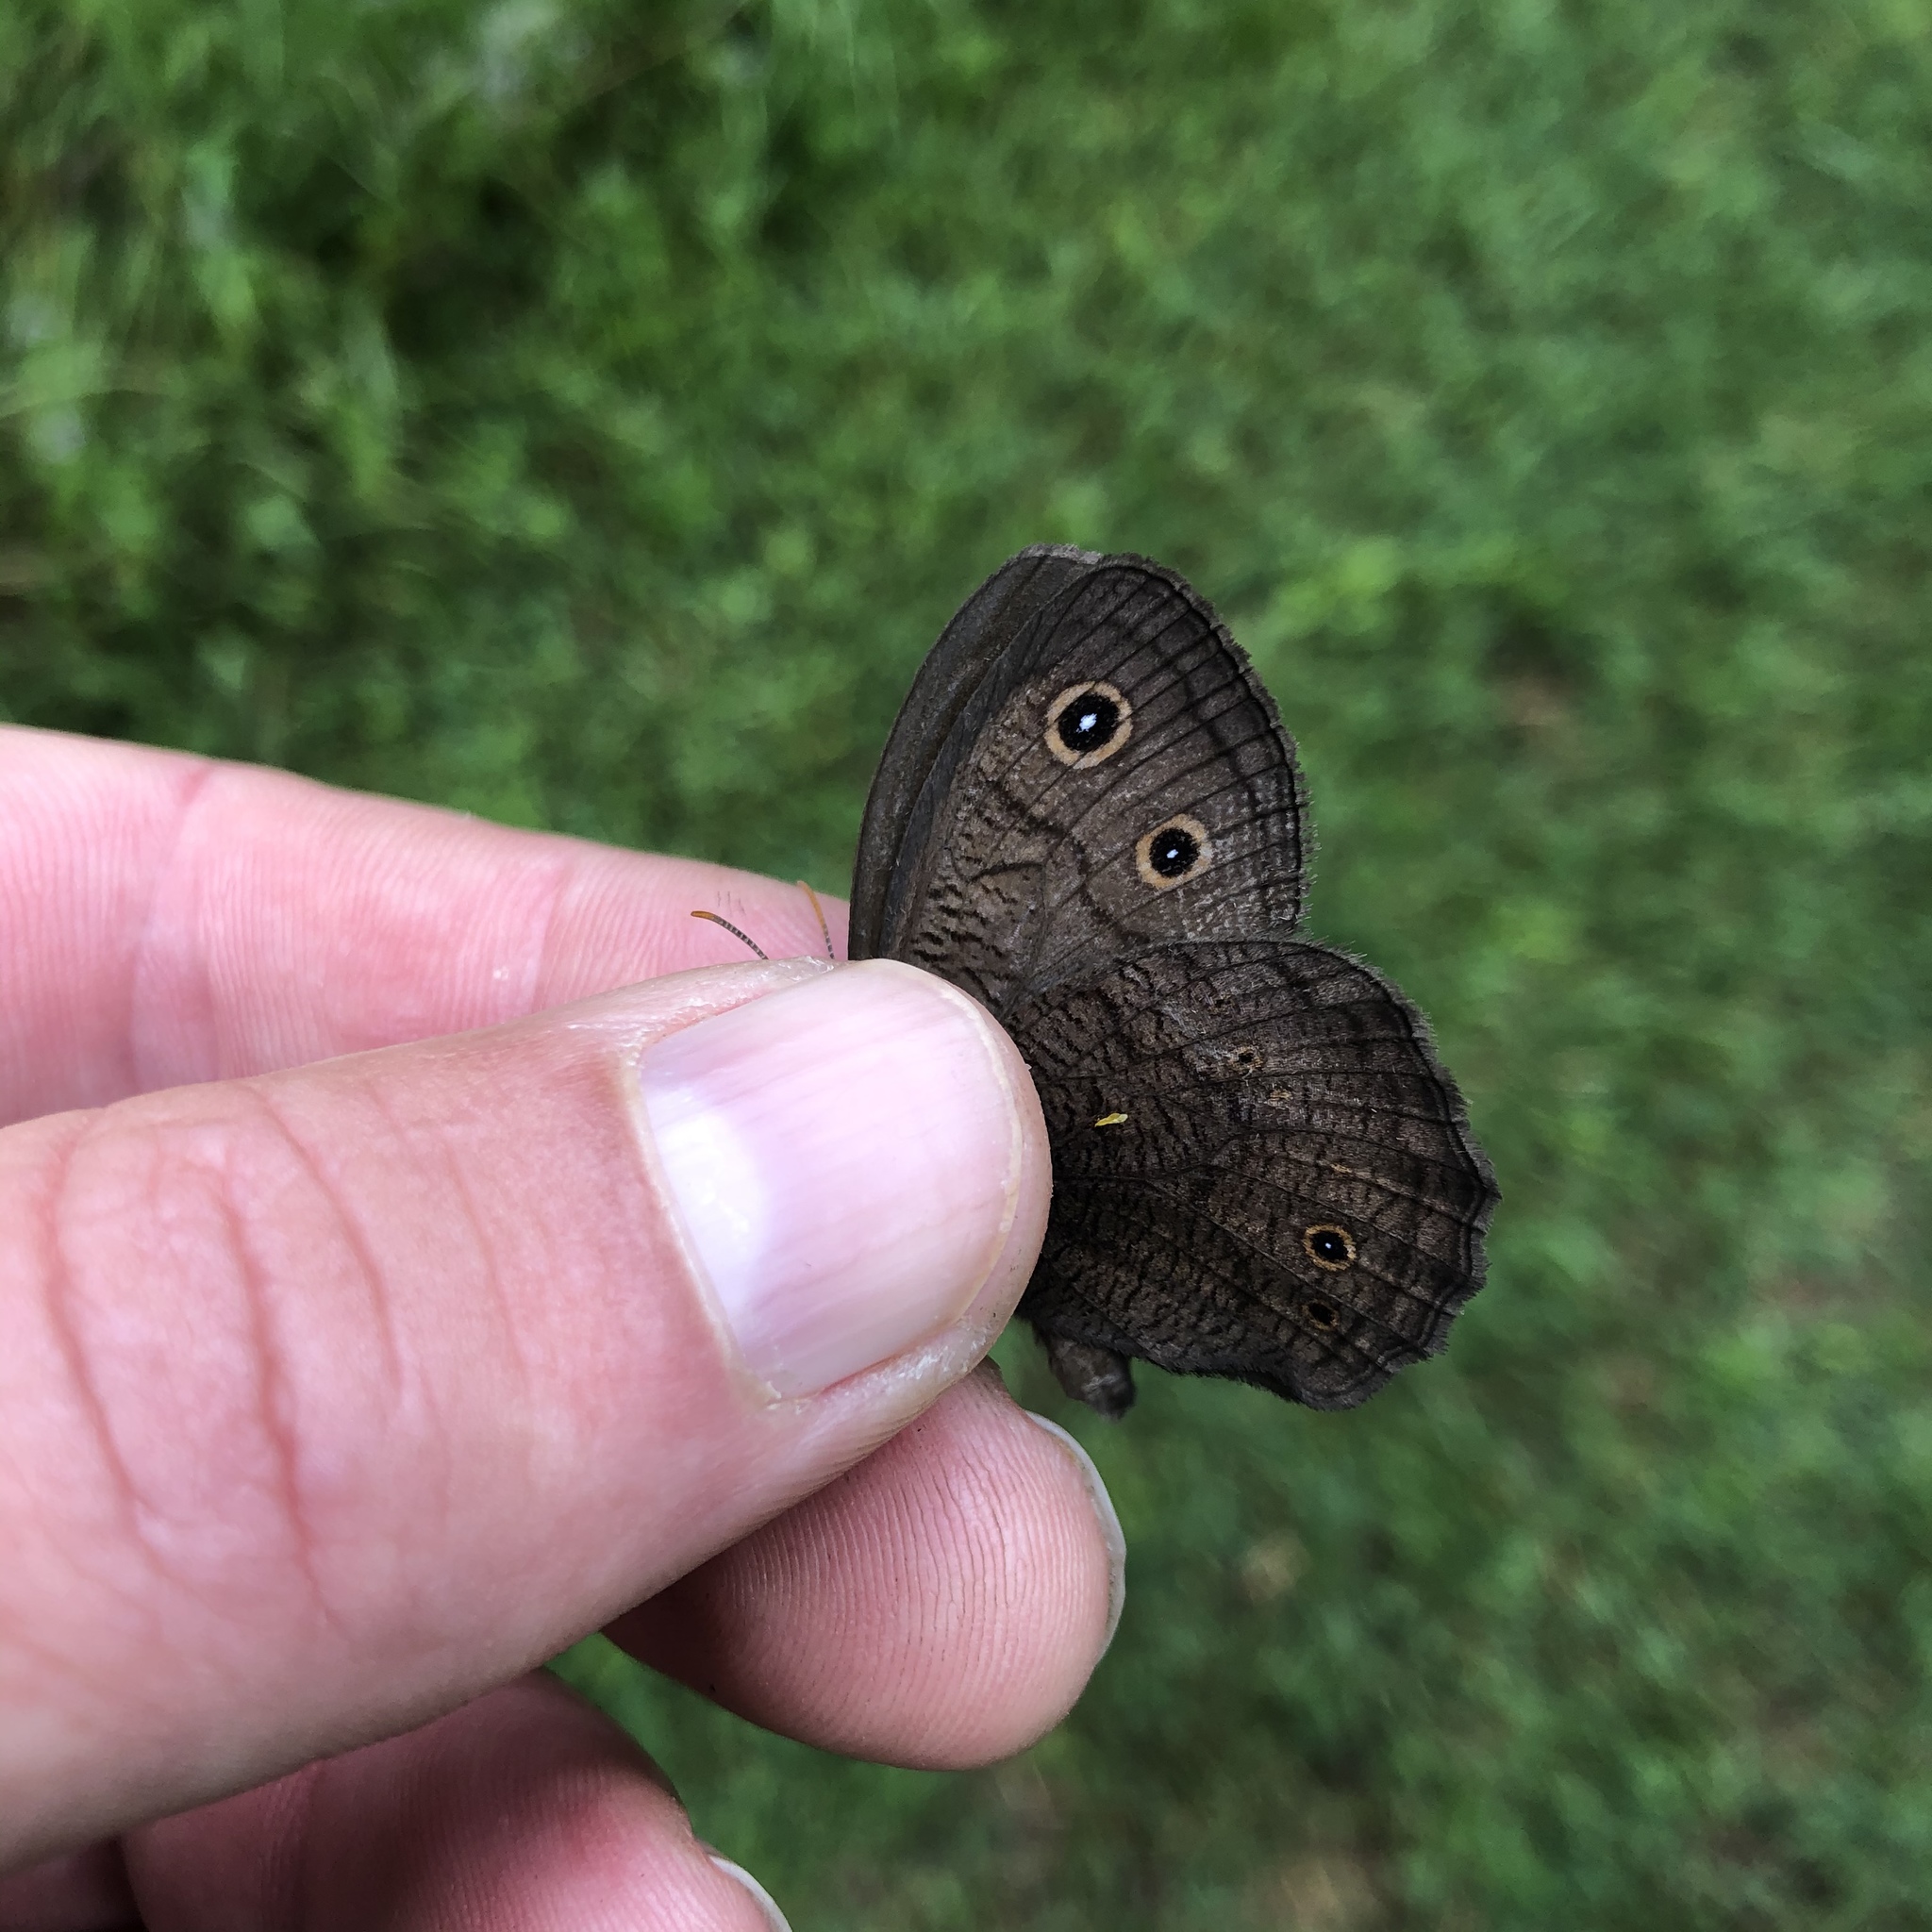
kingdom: Animalia
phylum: Arthropoda
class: Insecta
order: Lepidoptera
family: Nymphalidae
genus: Cercyonis
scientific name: Cercyonis pegala
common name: Common wood-nymph
